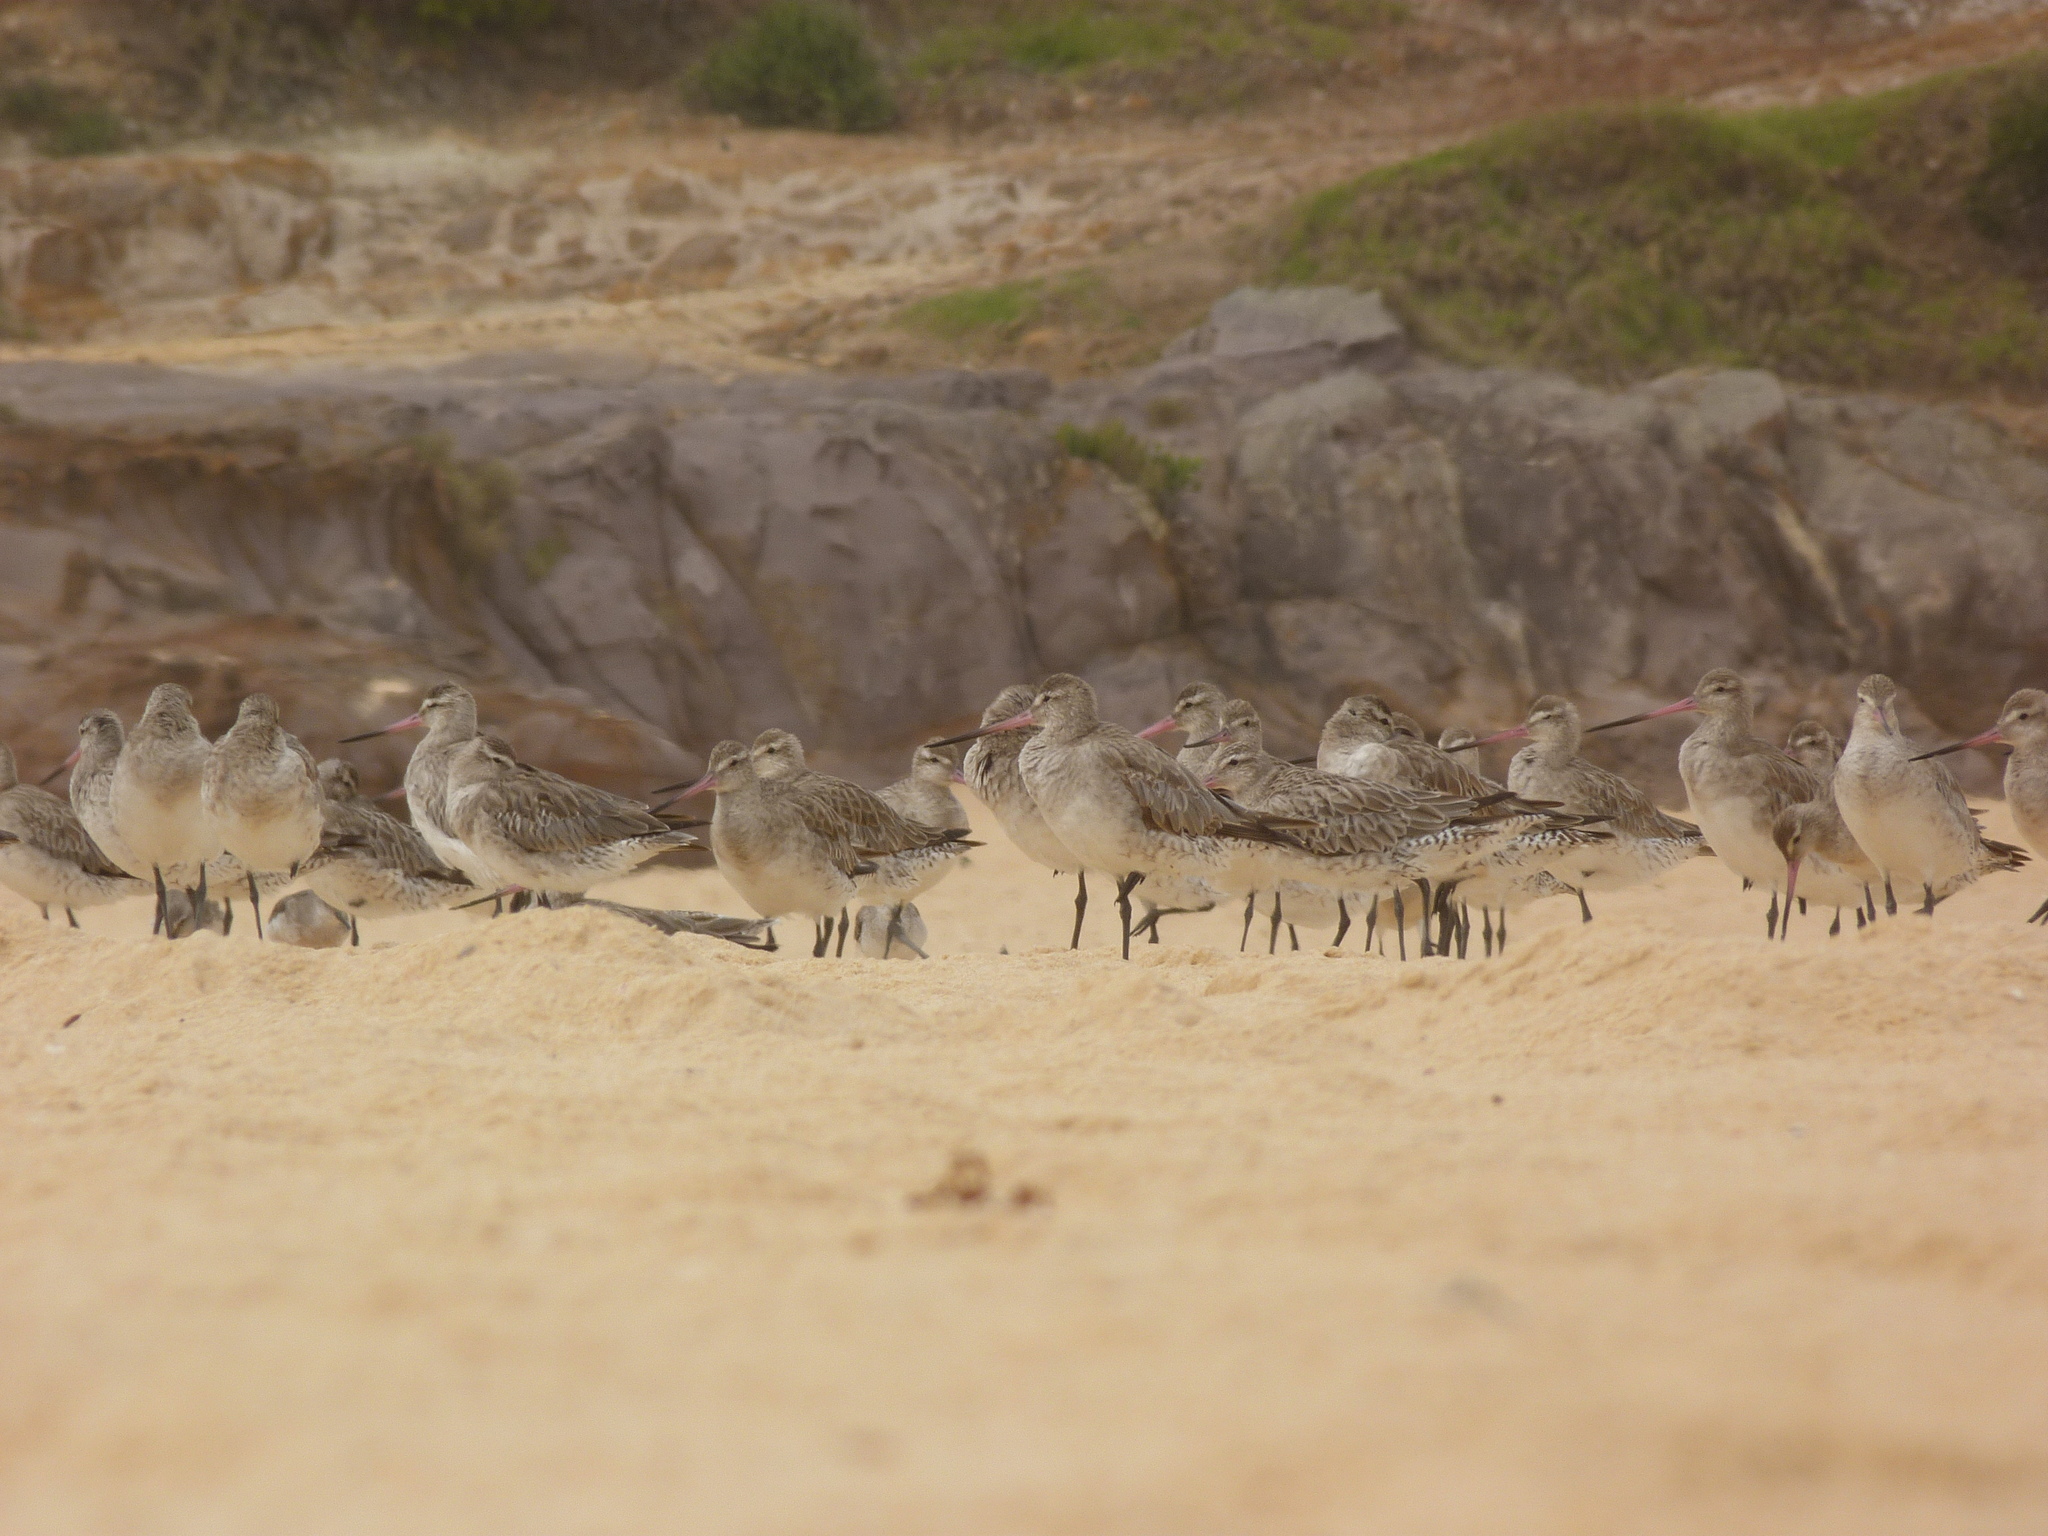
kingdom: Animalia
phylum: Chordata
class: Aves
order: Charadriiformes
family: Scolopacidae
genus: Limosa
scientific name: Limosa lapponica
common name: Bar-tailed godwit
